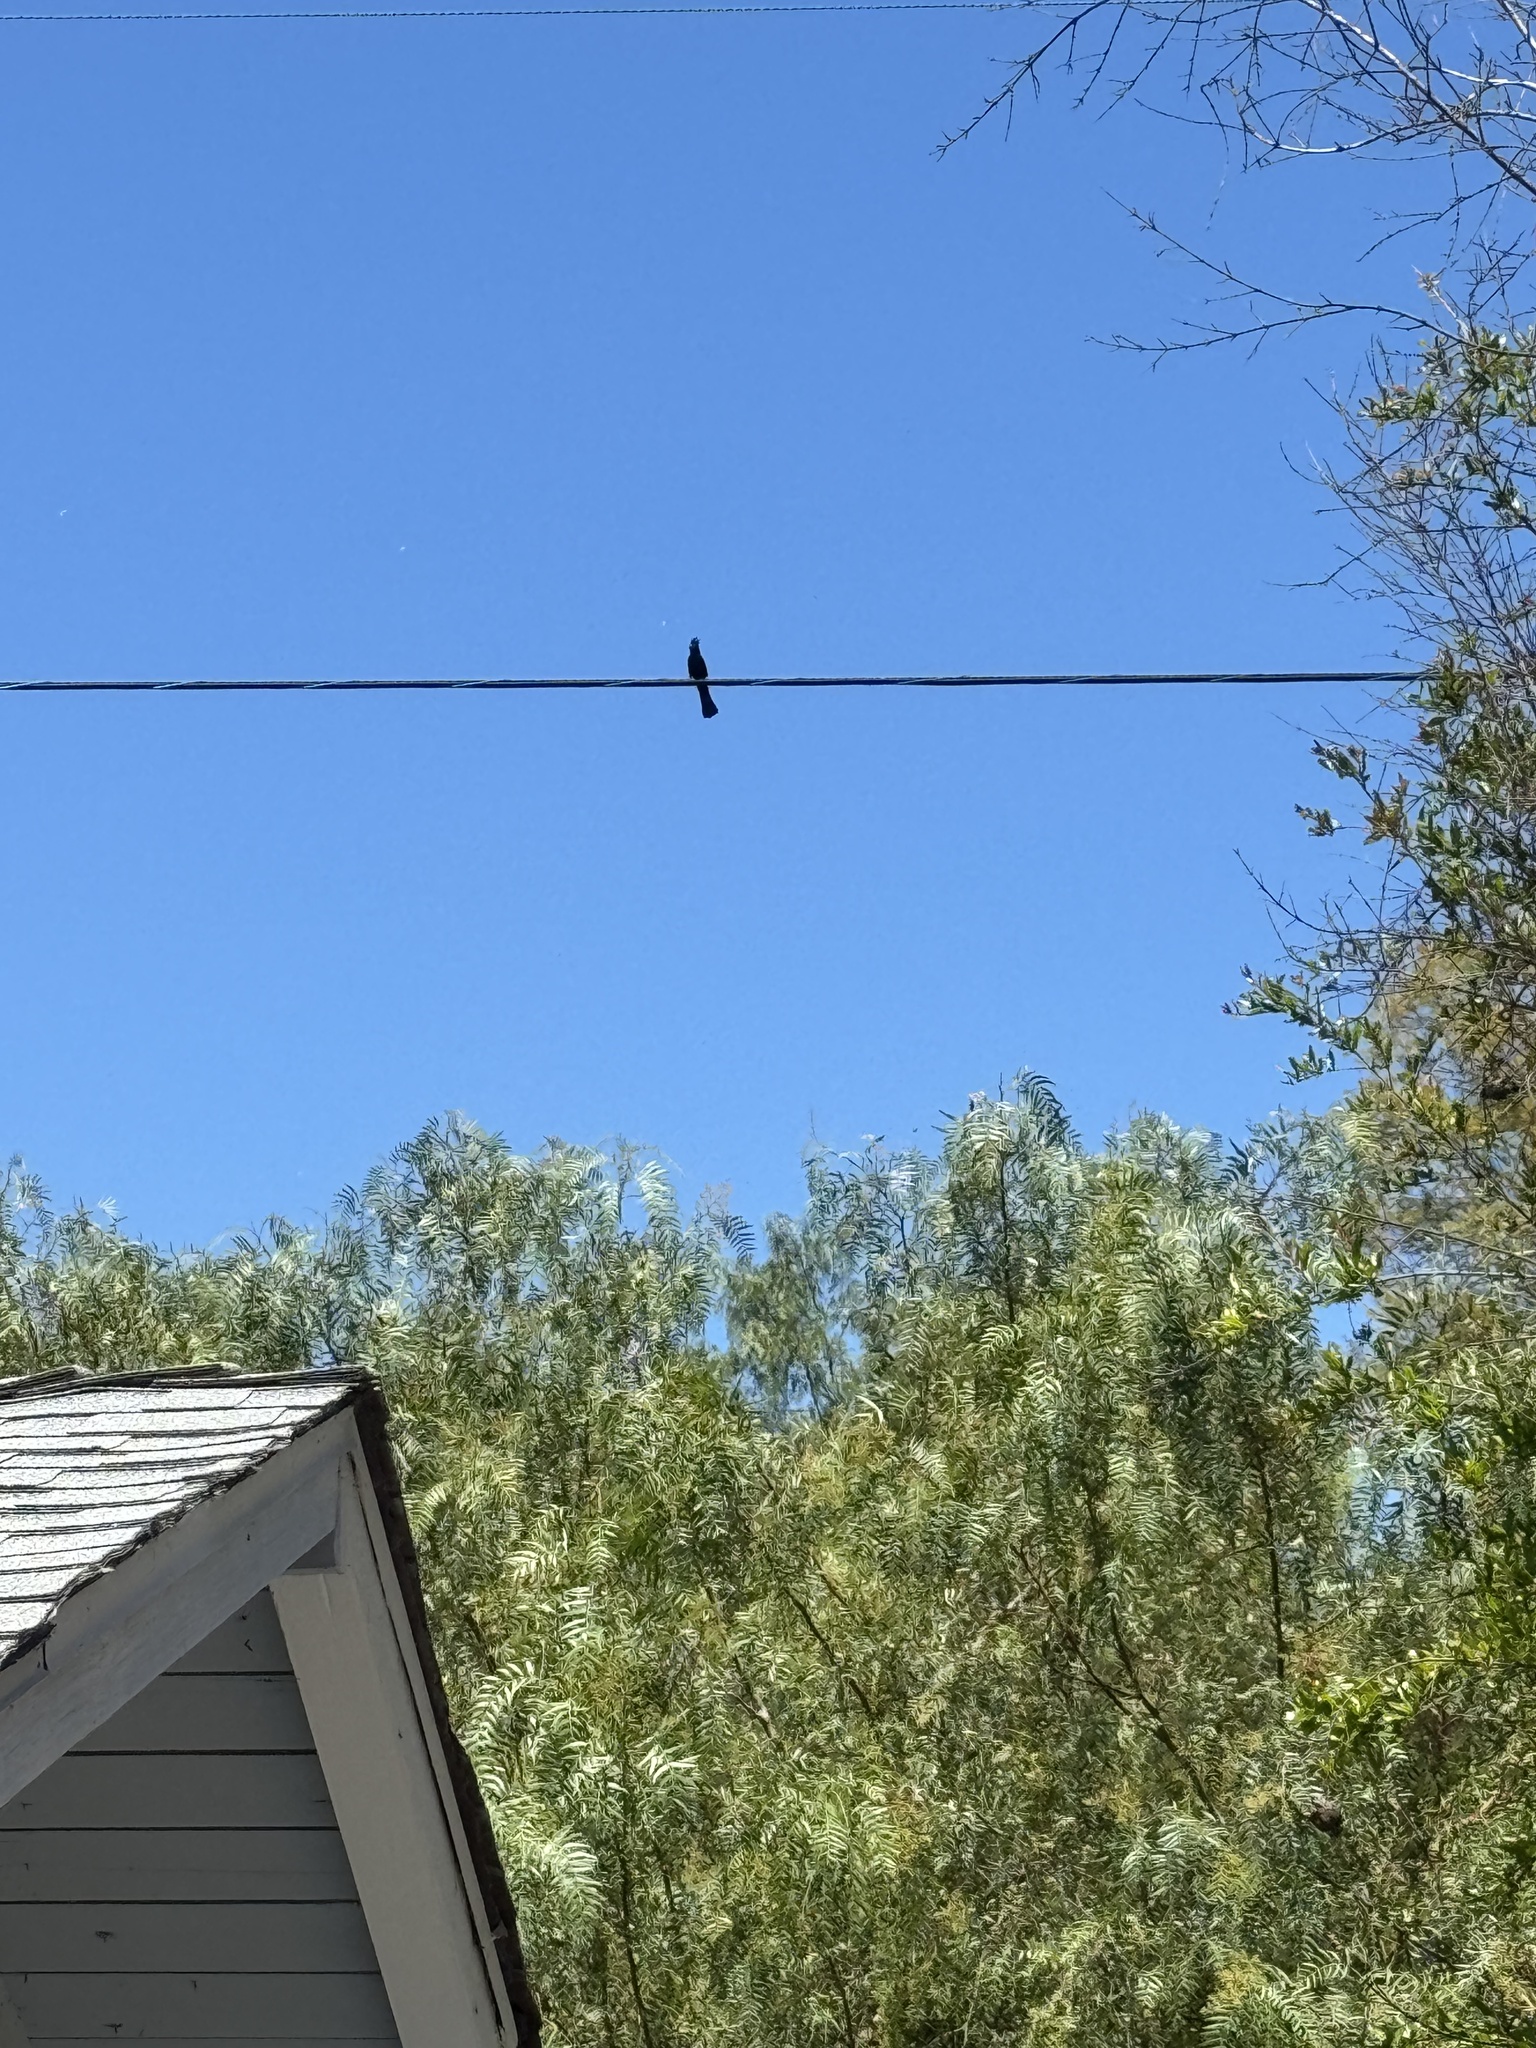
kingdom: Animalia
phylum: Chordata
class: Aves
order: Passeriformes
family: Ptilogonatidae
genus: Phainopepla
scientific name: Phainopepla nitens
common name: Phainopepla
